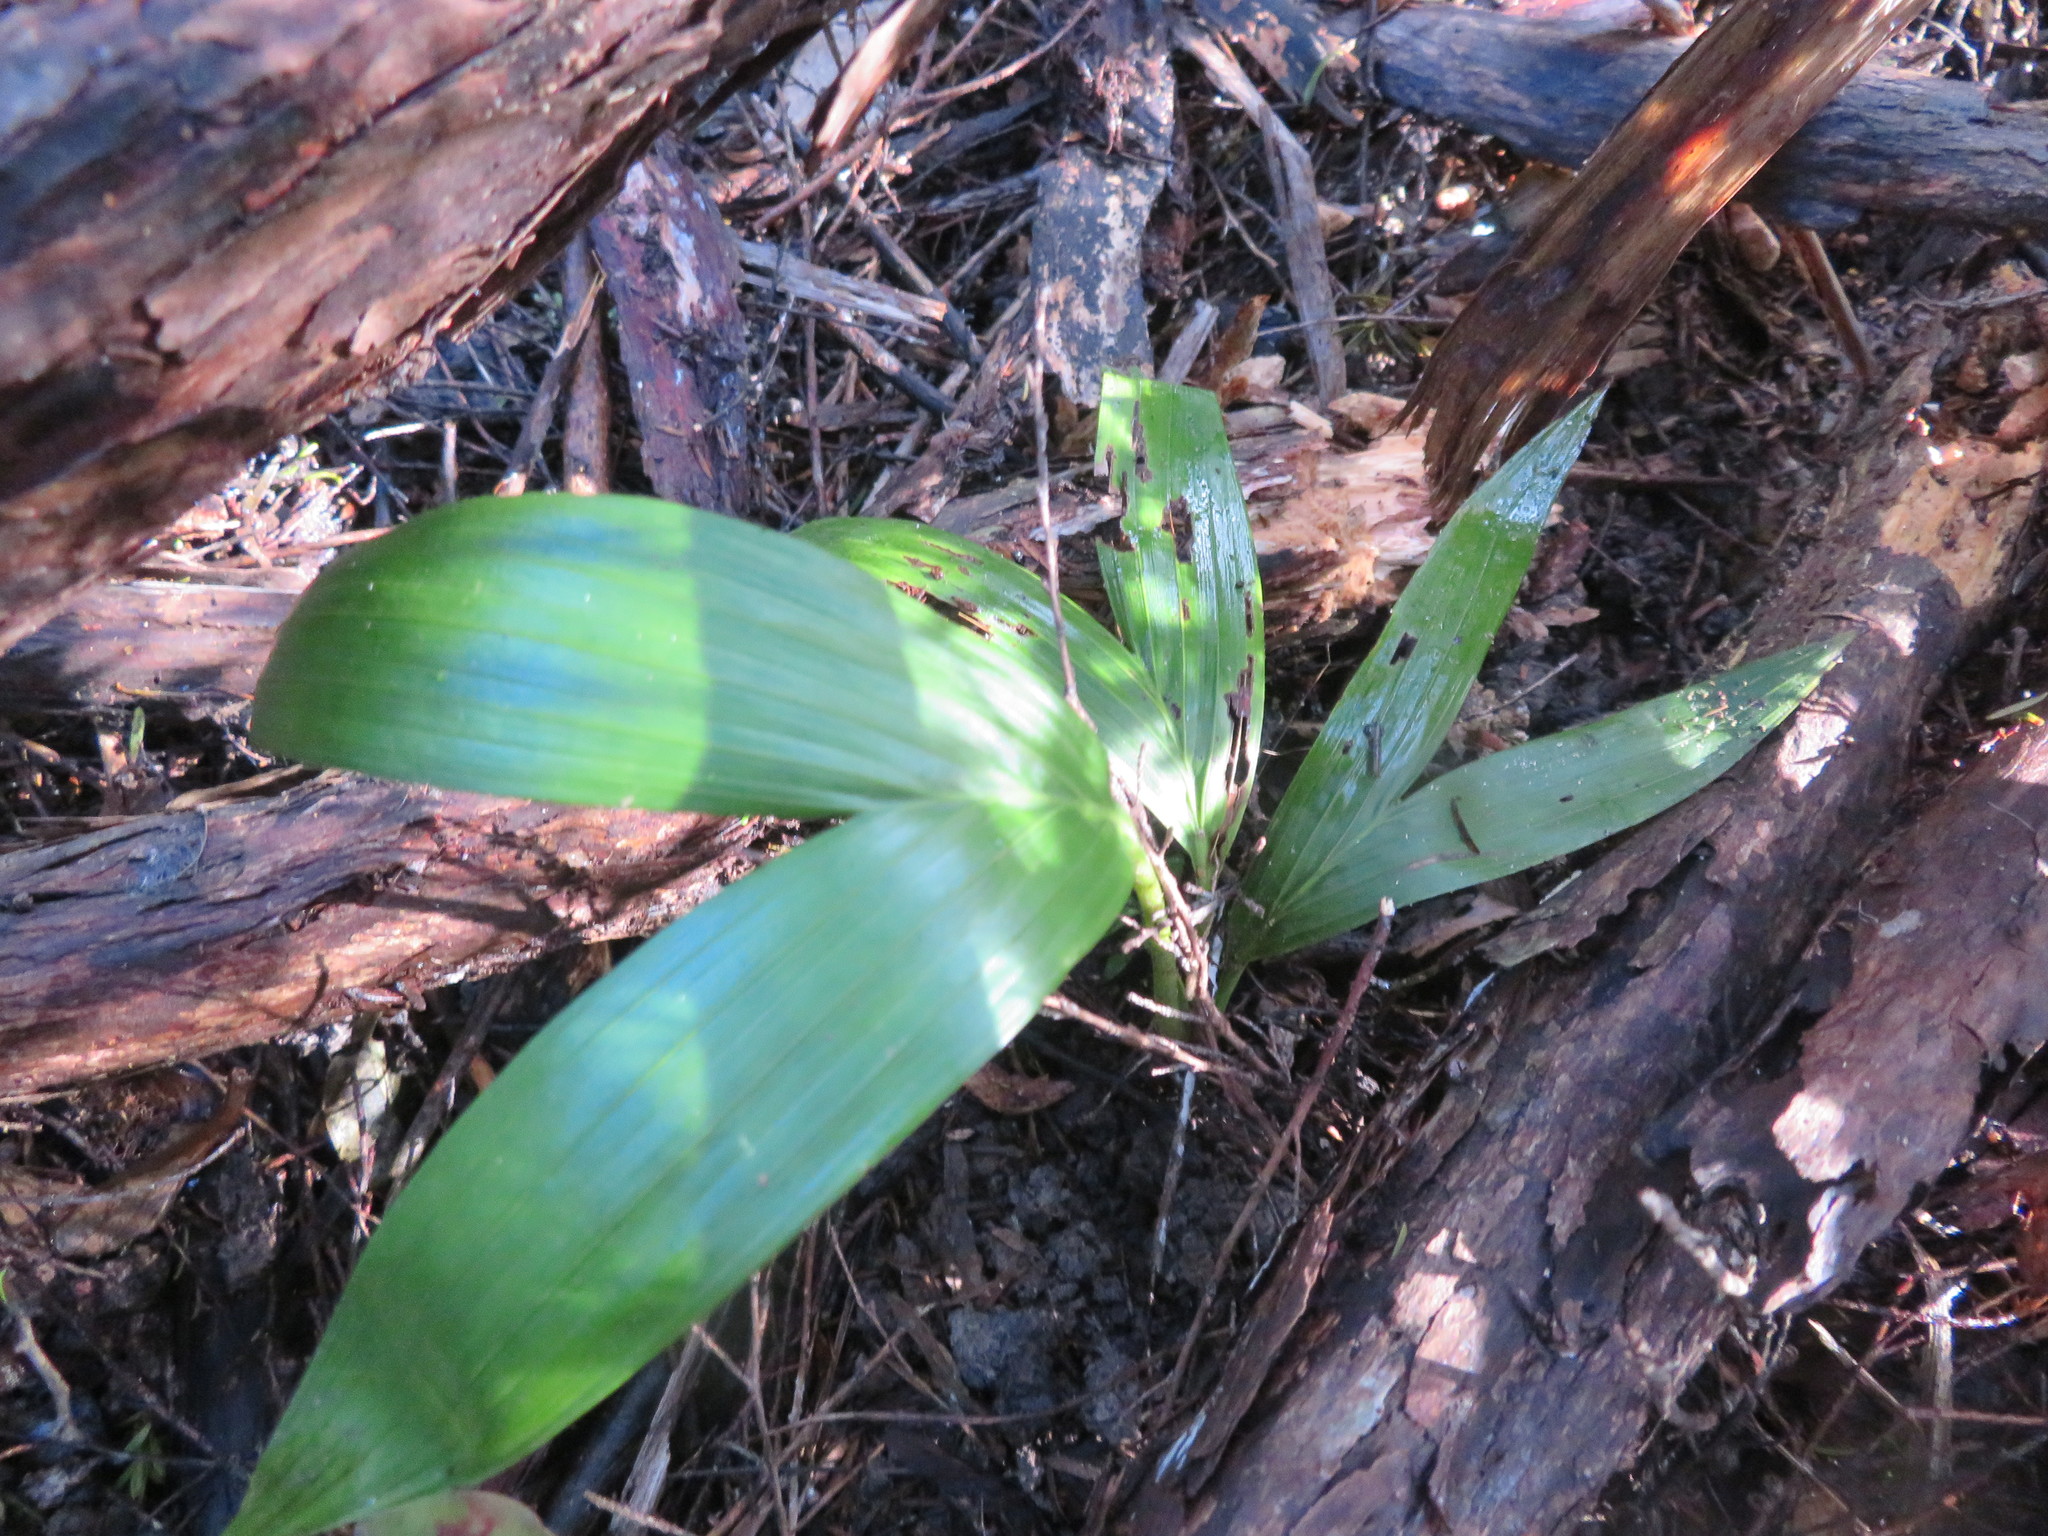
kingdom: Plantae
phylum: Tracheophyta
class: Liliopsida
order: Arecales
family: Arecaceae
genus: Archontophoenix
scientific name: Archontophoenix cunninghamiana
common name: Piccabeen bangalow palm
